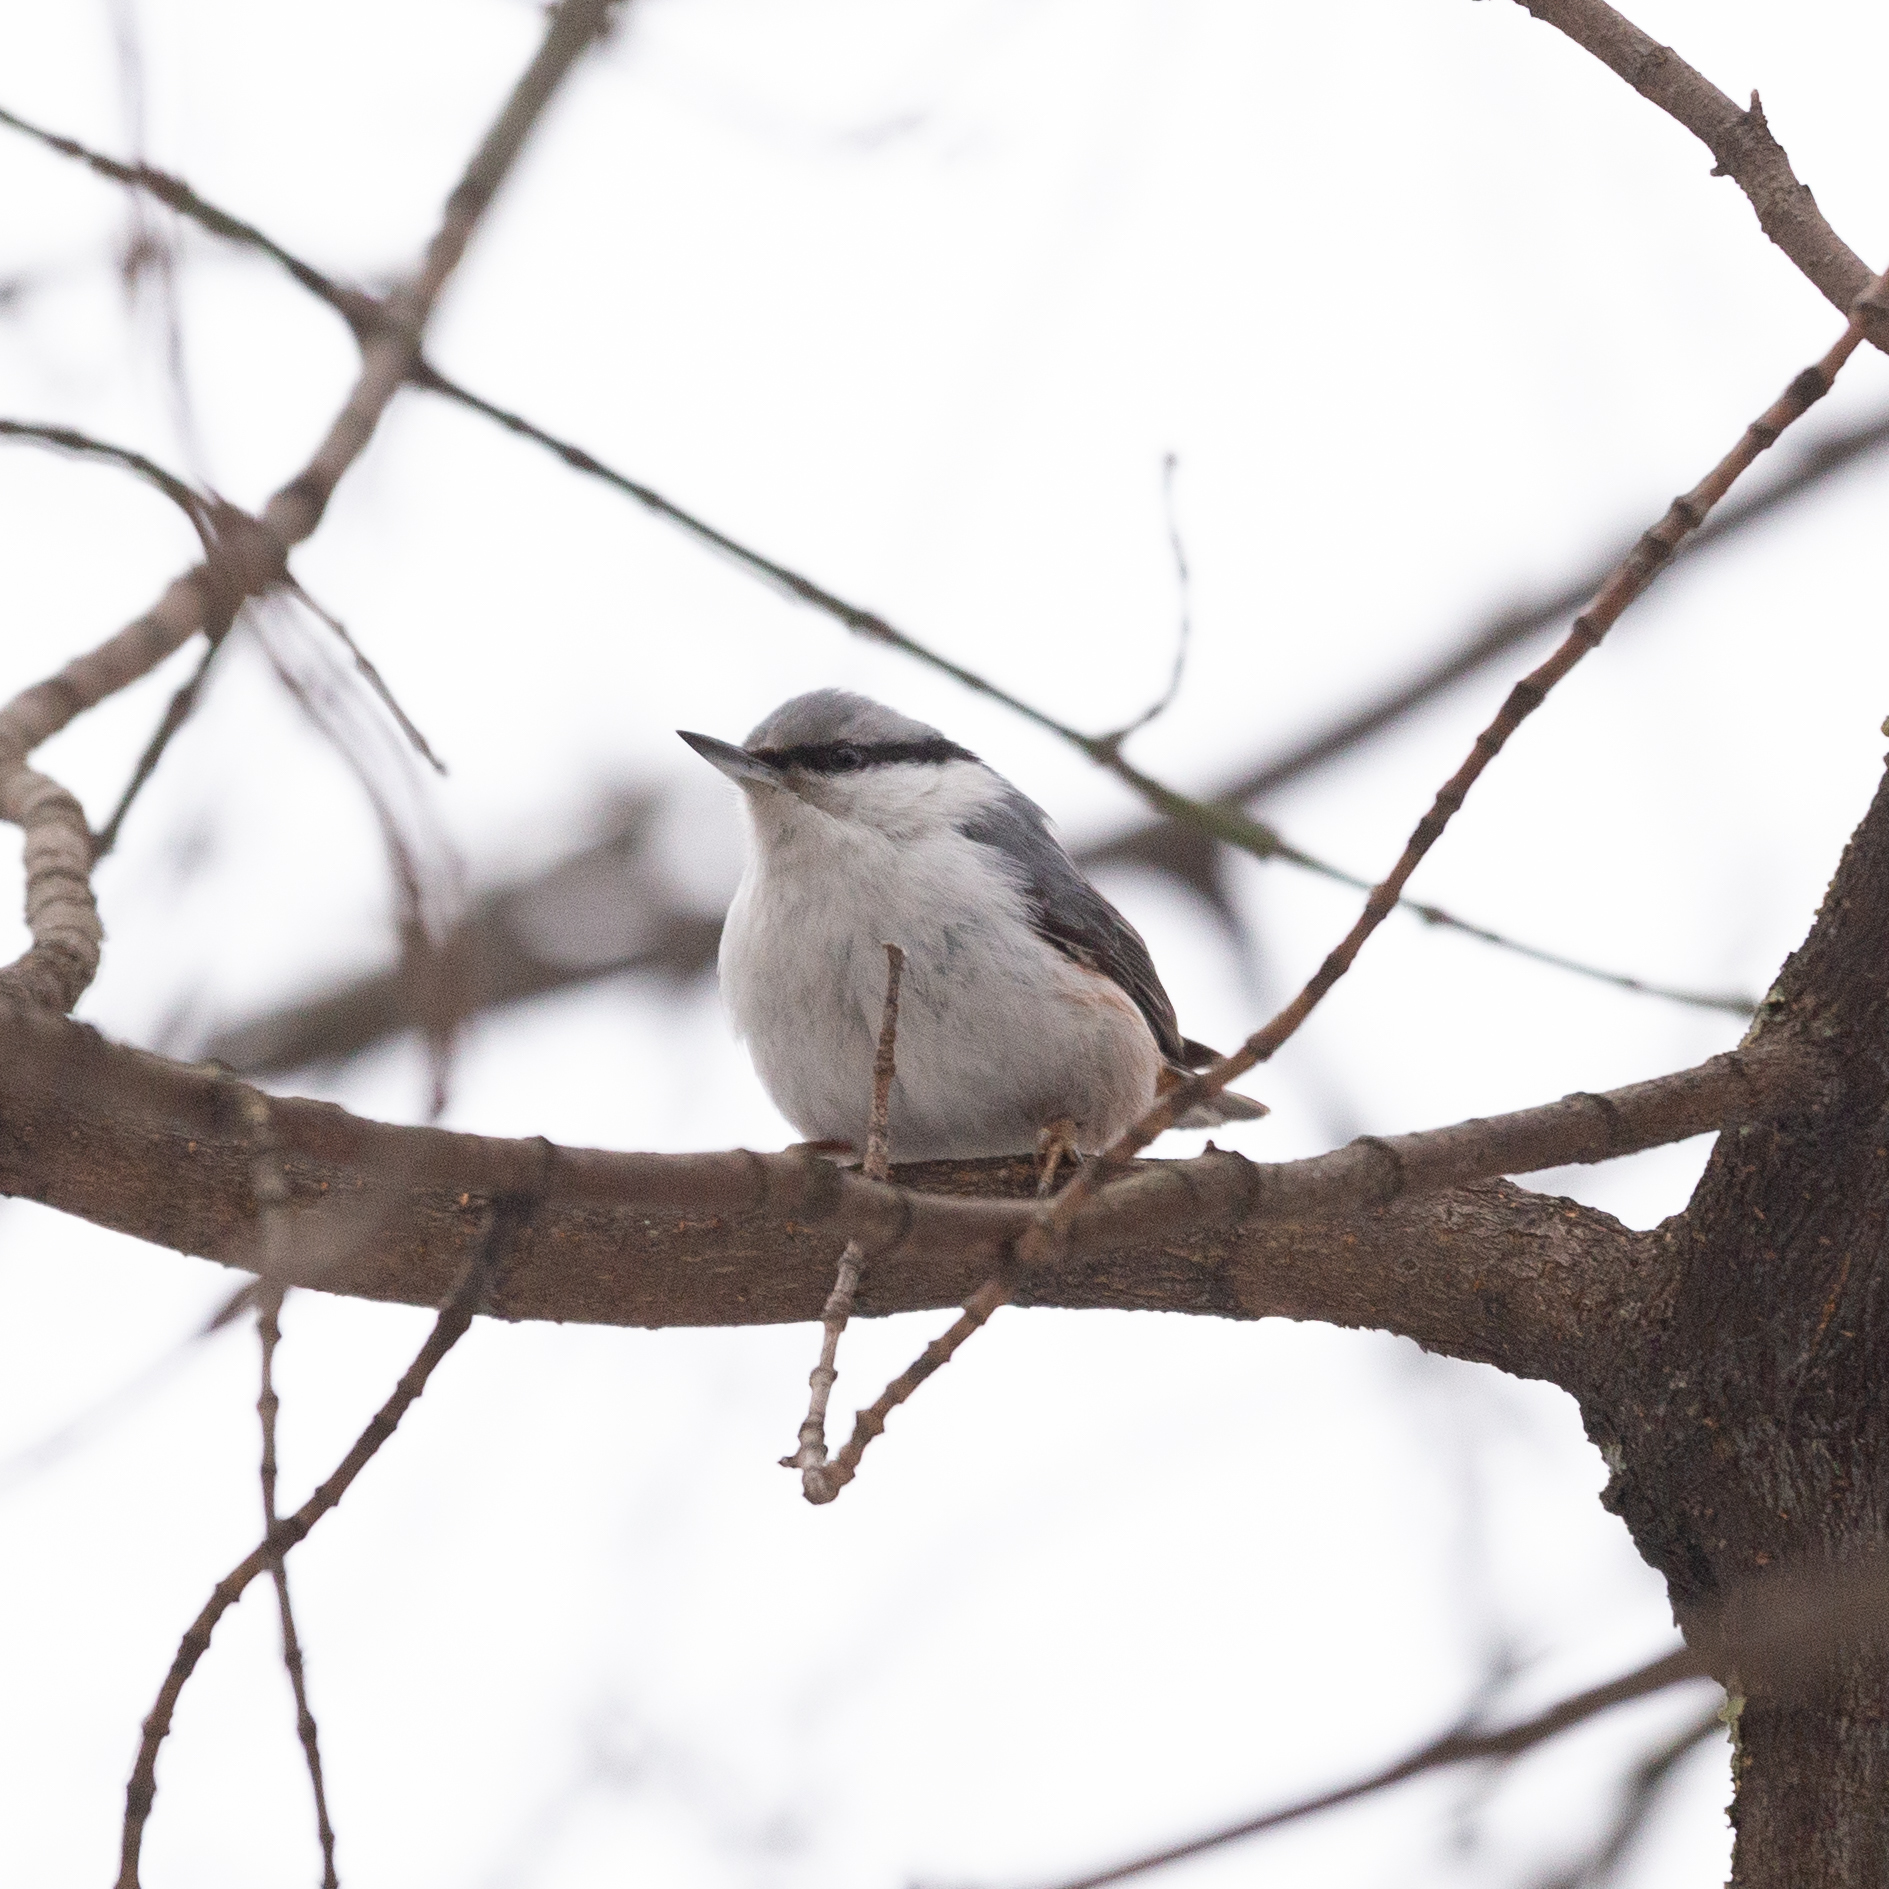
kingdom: Animalia
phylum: Chordata
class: Aves
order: Passeriformes
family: Sittidae
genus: Sitta
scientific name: Sitta europaea
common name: Eurasian nuthatch
